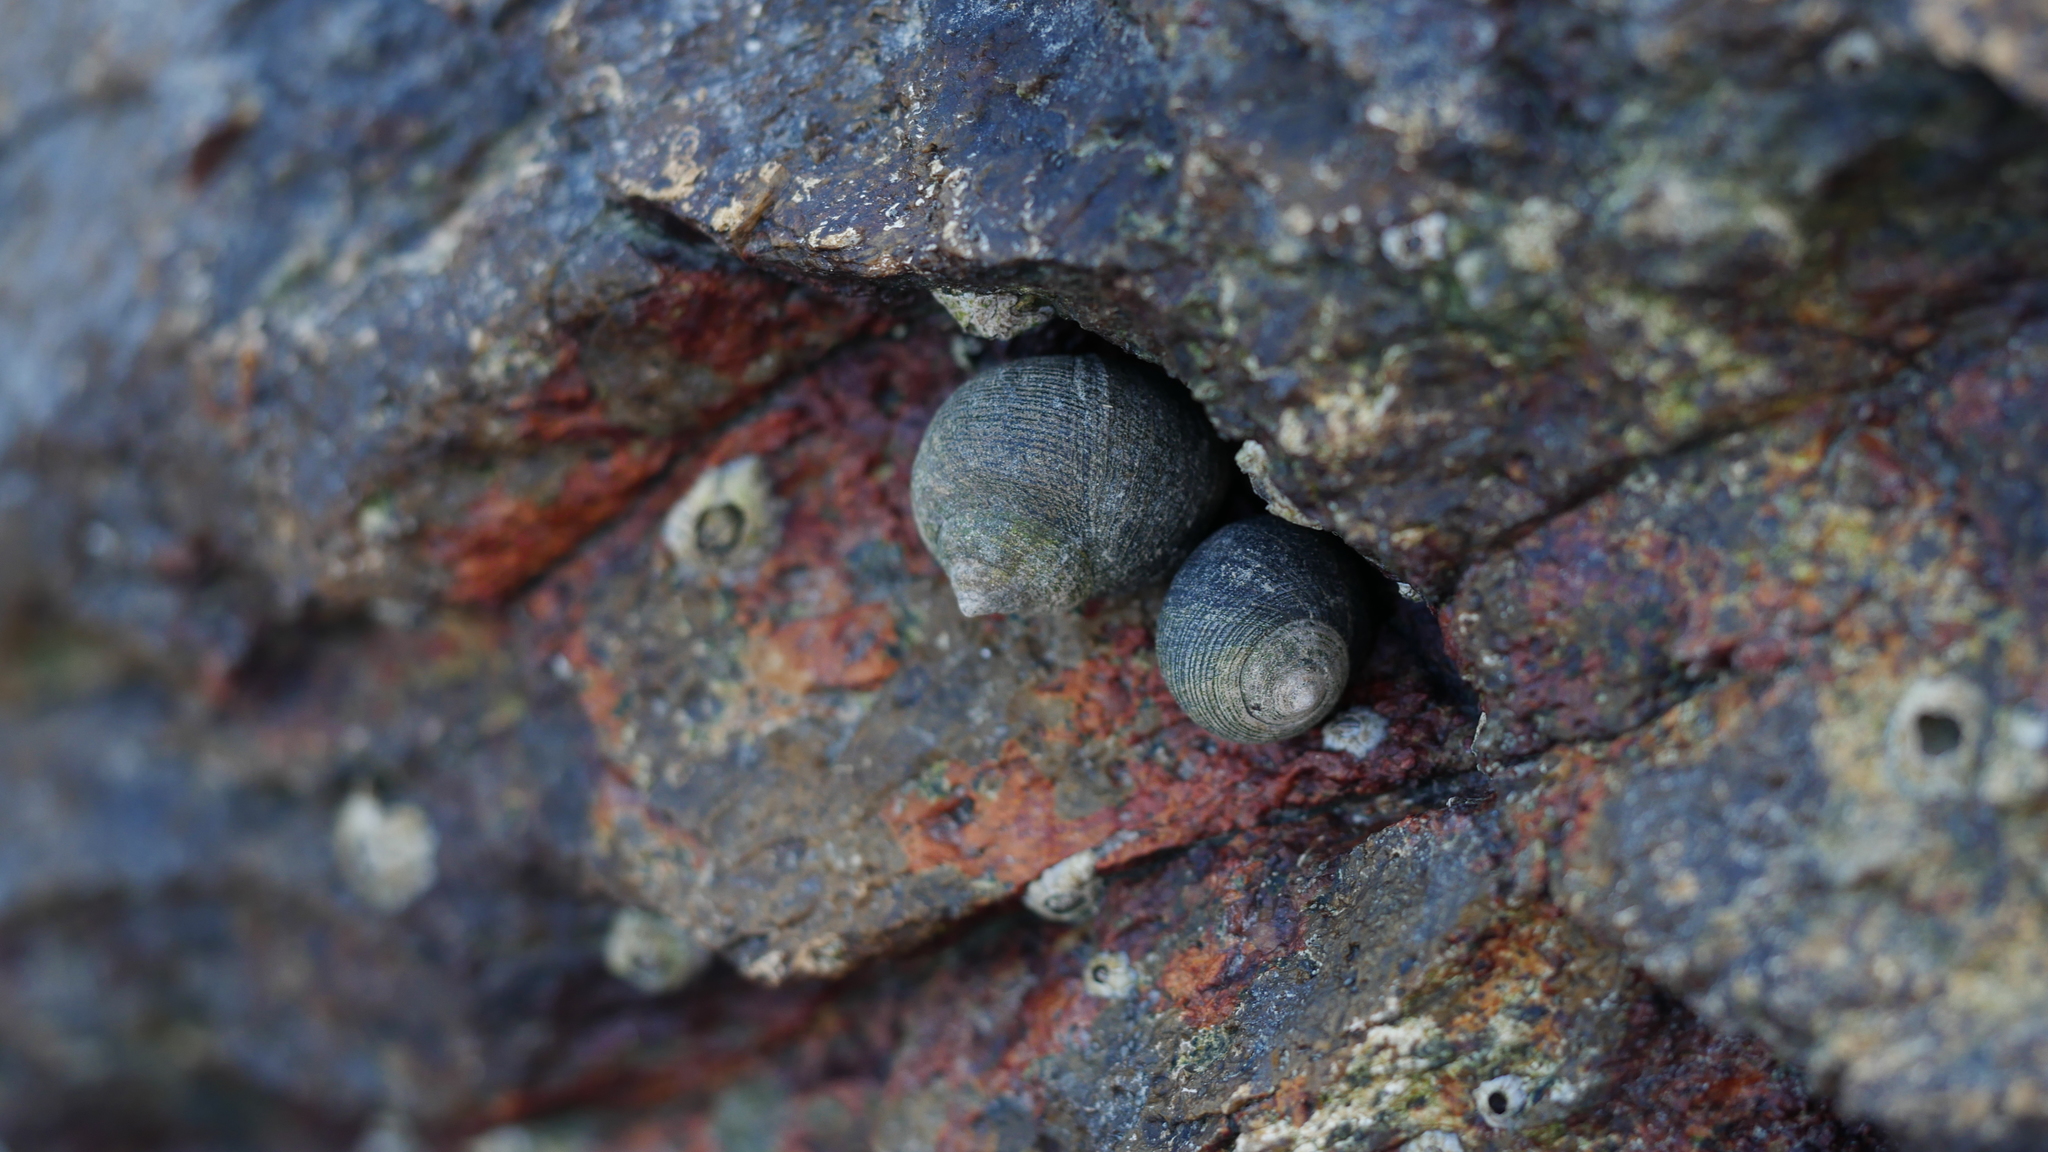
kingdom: Animalia
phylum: Mollusca
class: Gastropoda
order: Littorinimorpha
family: Littorinidae
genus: Littorina
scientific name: Littorina littorea
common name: Common periwinkle
